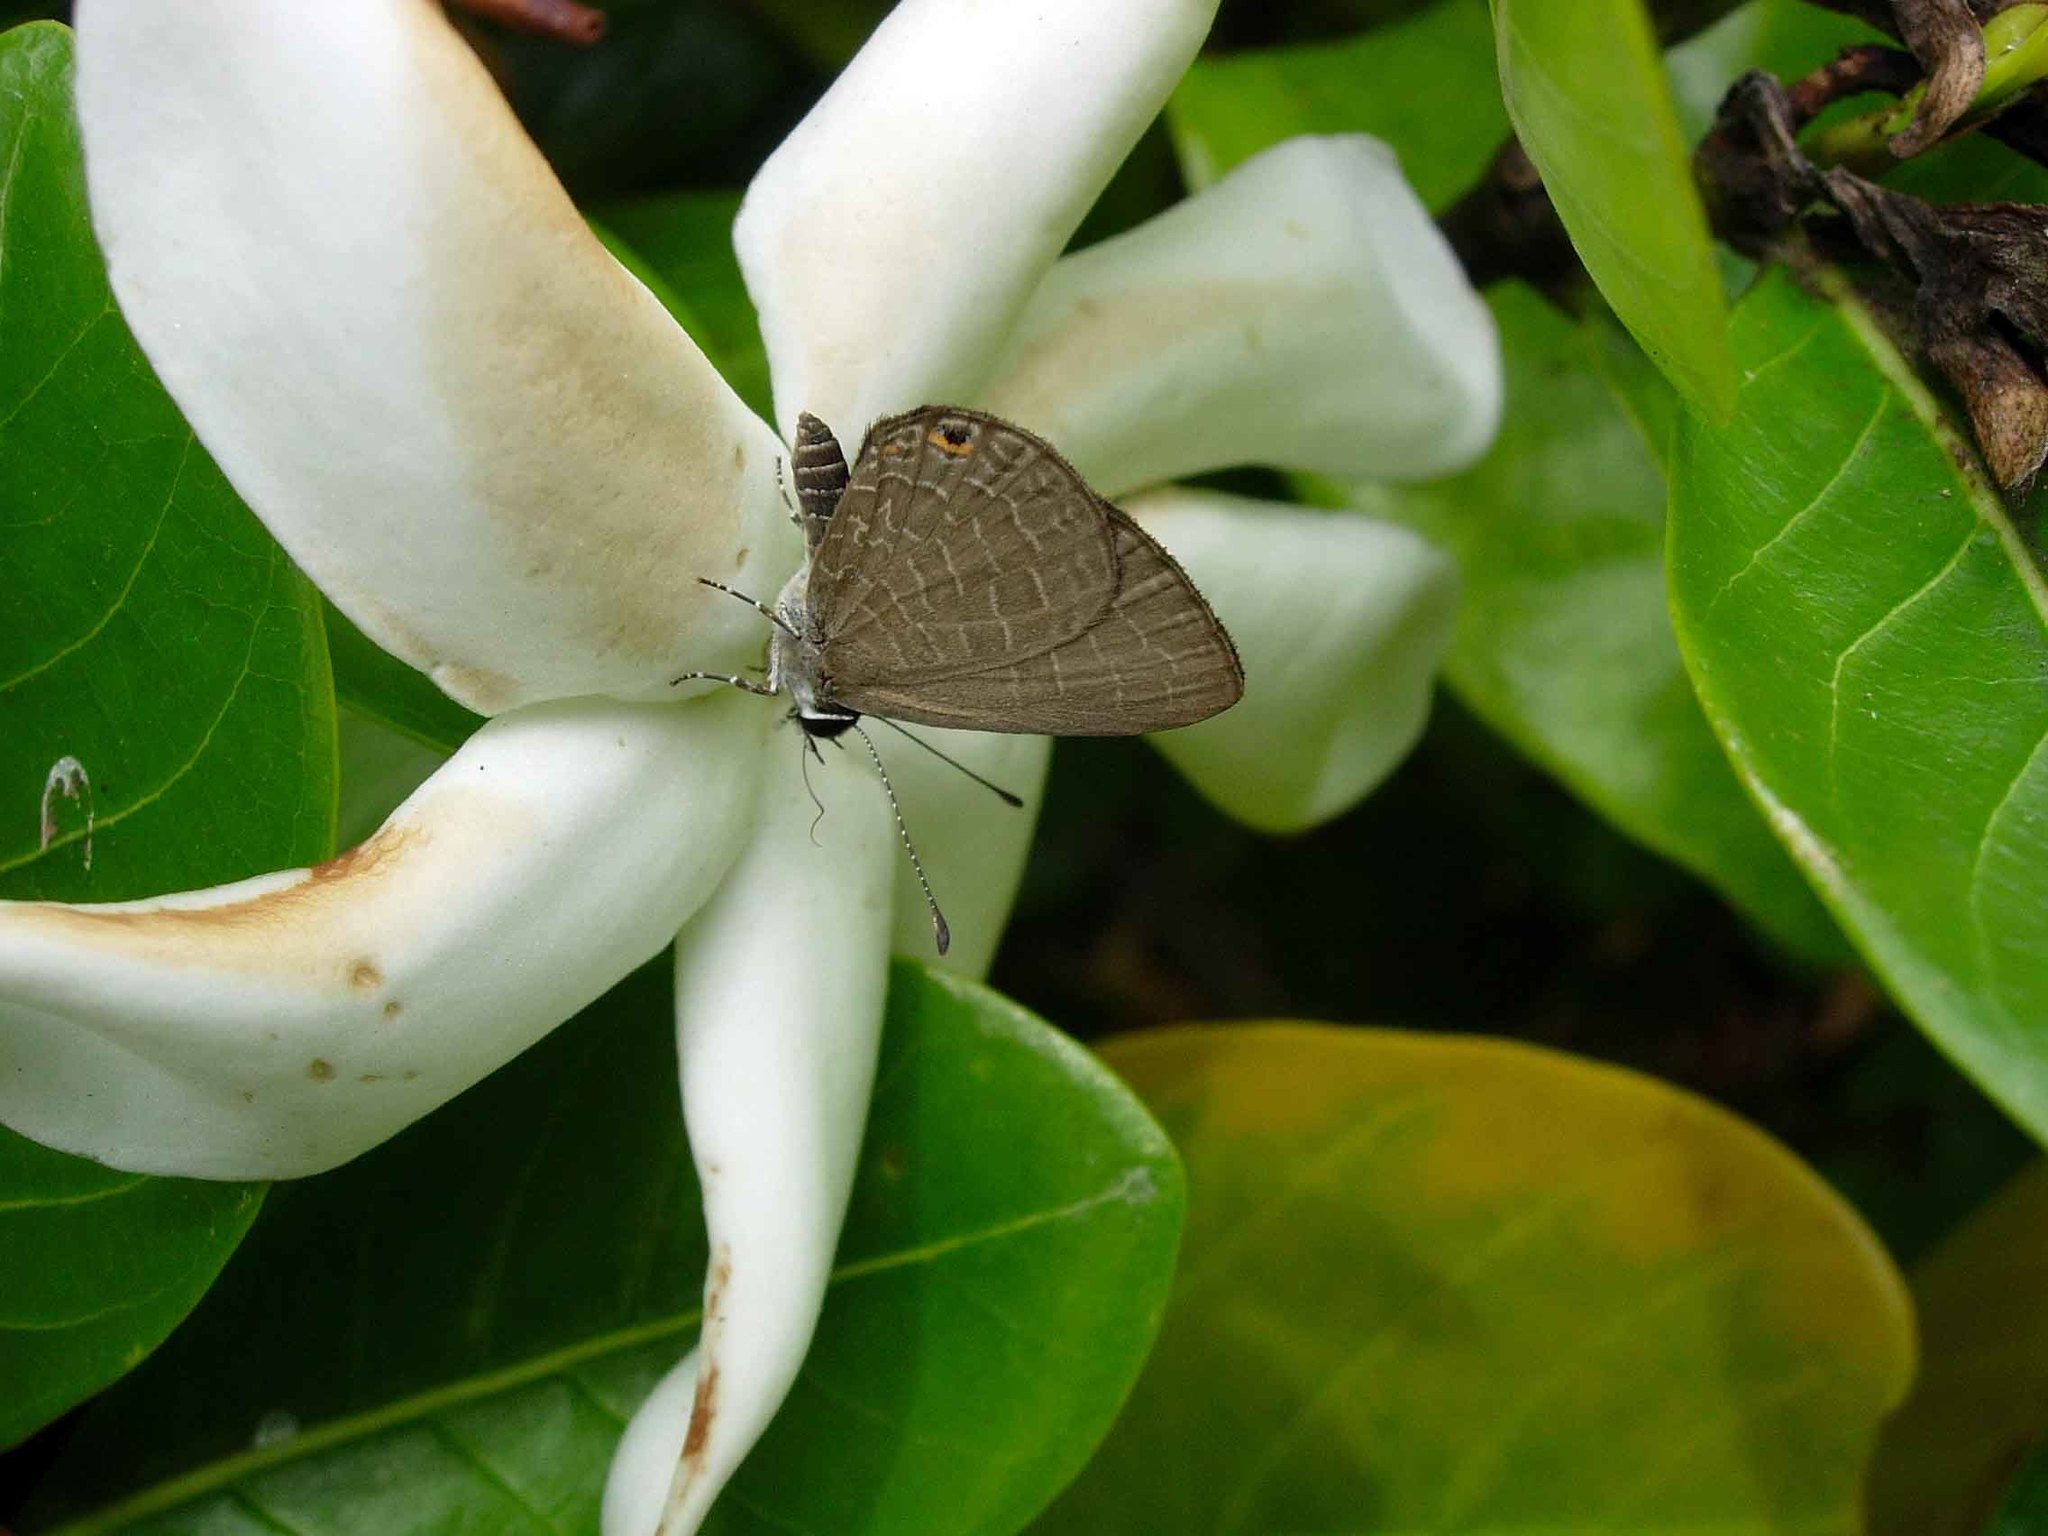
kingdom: Animalia
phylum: Arthropoda
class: Insecta
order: Lepidoptera
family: Lycaenidae
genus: Jamides
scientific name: Jamides walkeri
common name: Cook islands blue
